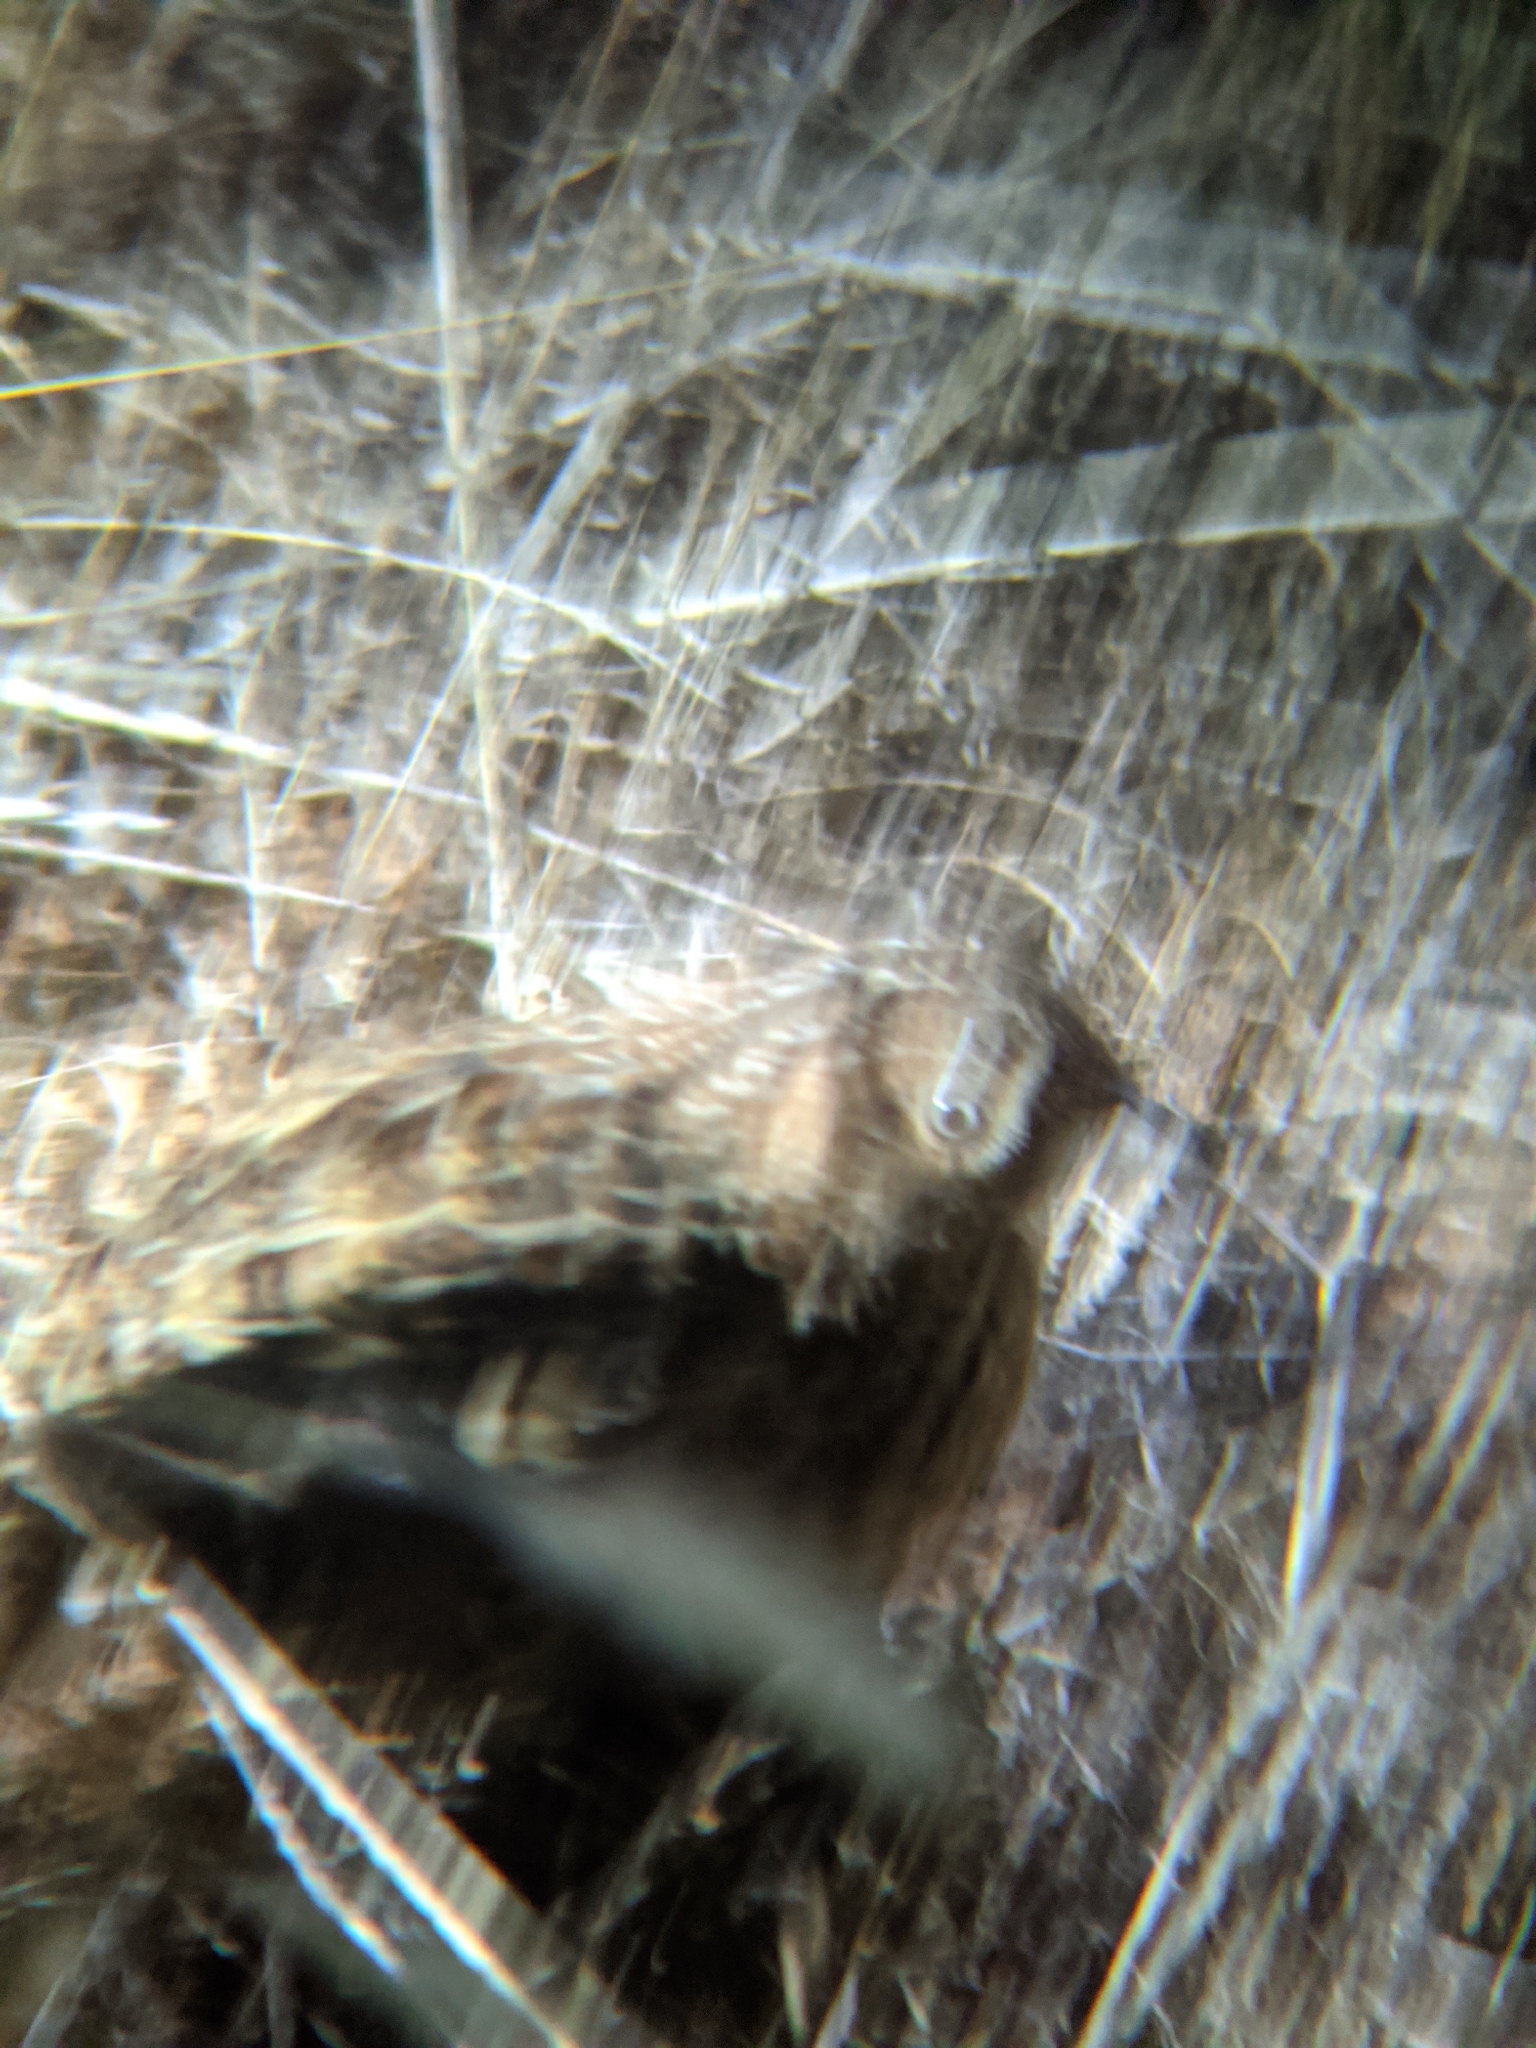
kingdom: Animalia
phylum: Chordata
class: Aves
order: Charadriiformes
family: Turnicidae
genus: Turnix
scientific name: Turnix velox
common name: Little buttonquail
